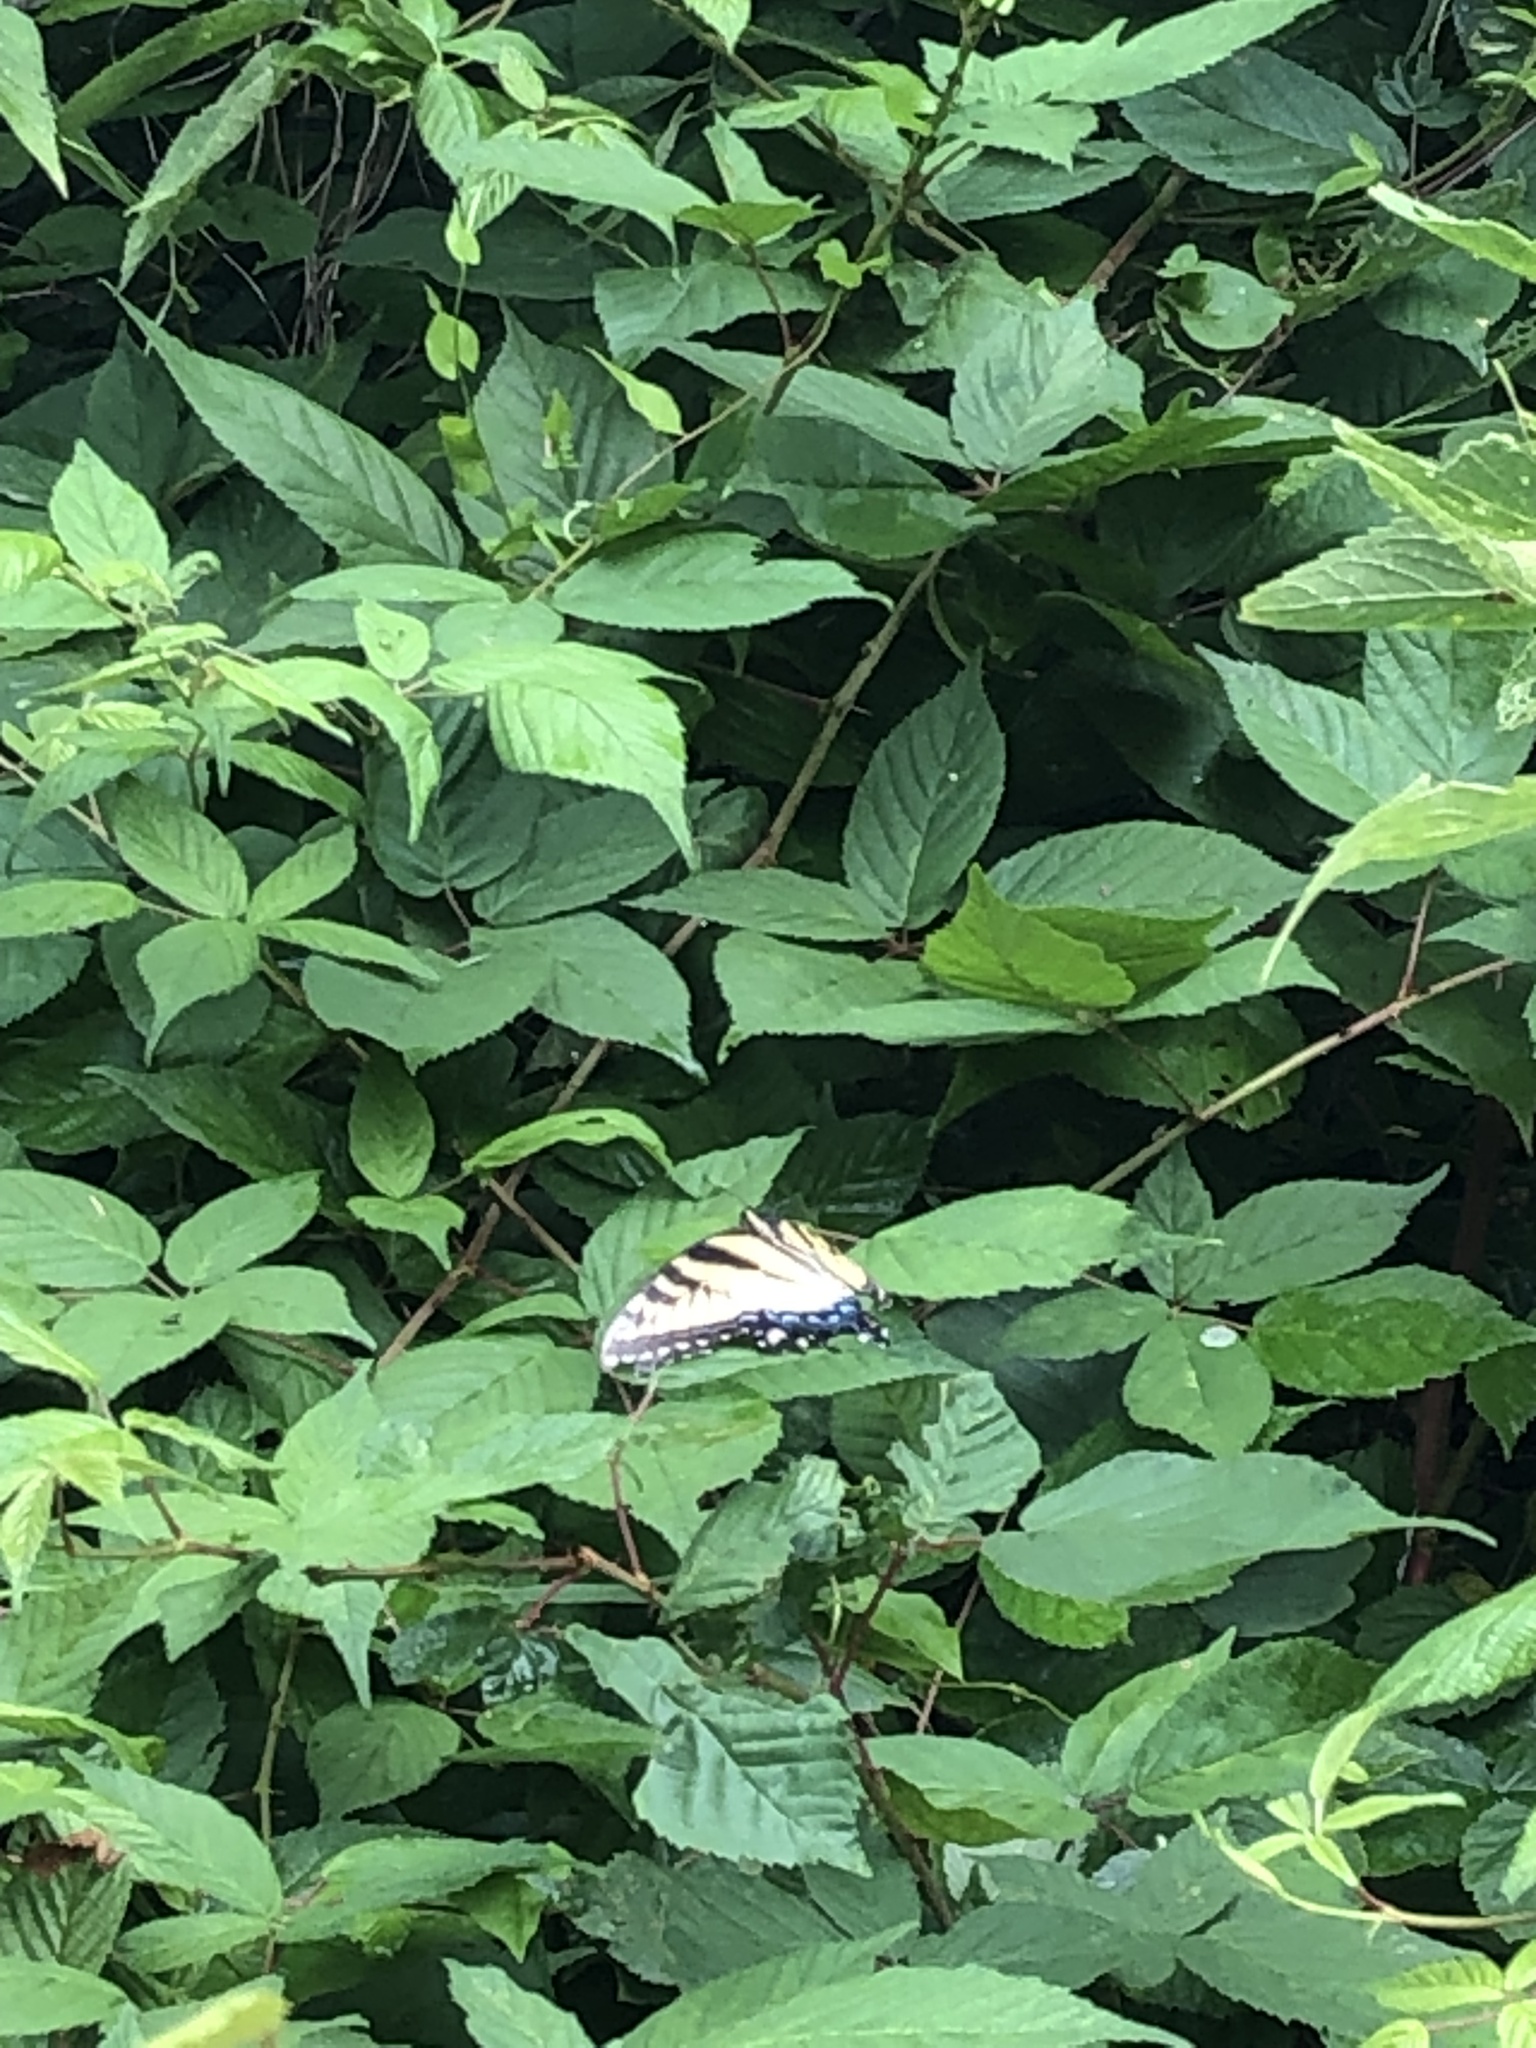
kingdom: Animalia
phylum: Arthropoda
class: Insecta
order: Lepidoptera
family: Papilionidae
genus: Papilio
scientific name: Papilio glaucus
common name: Tiger swallowtail
